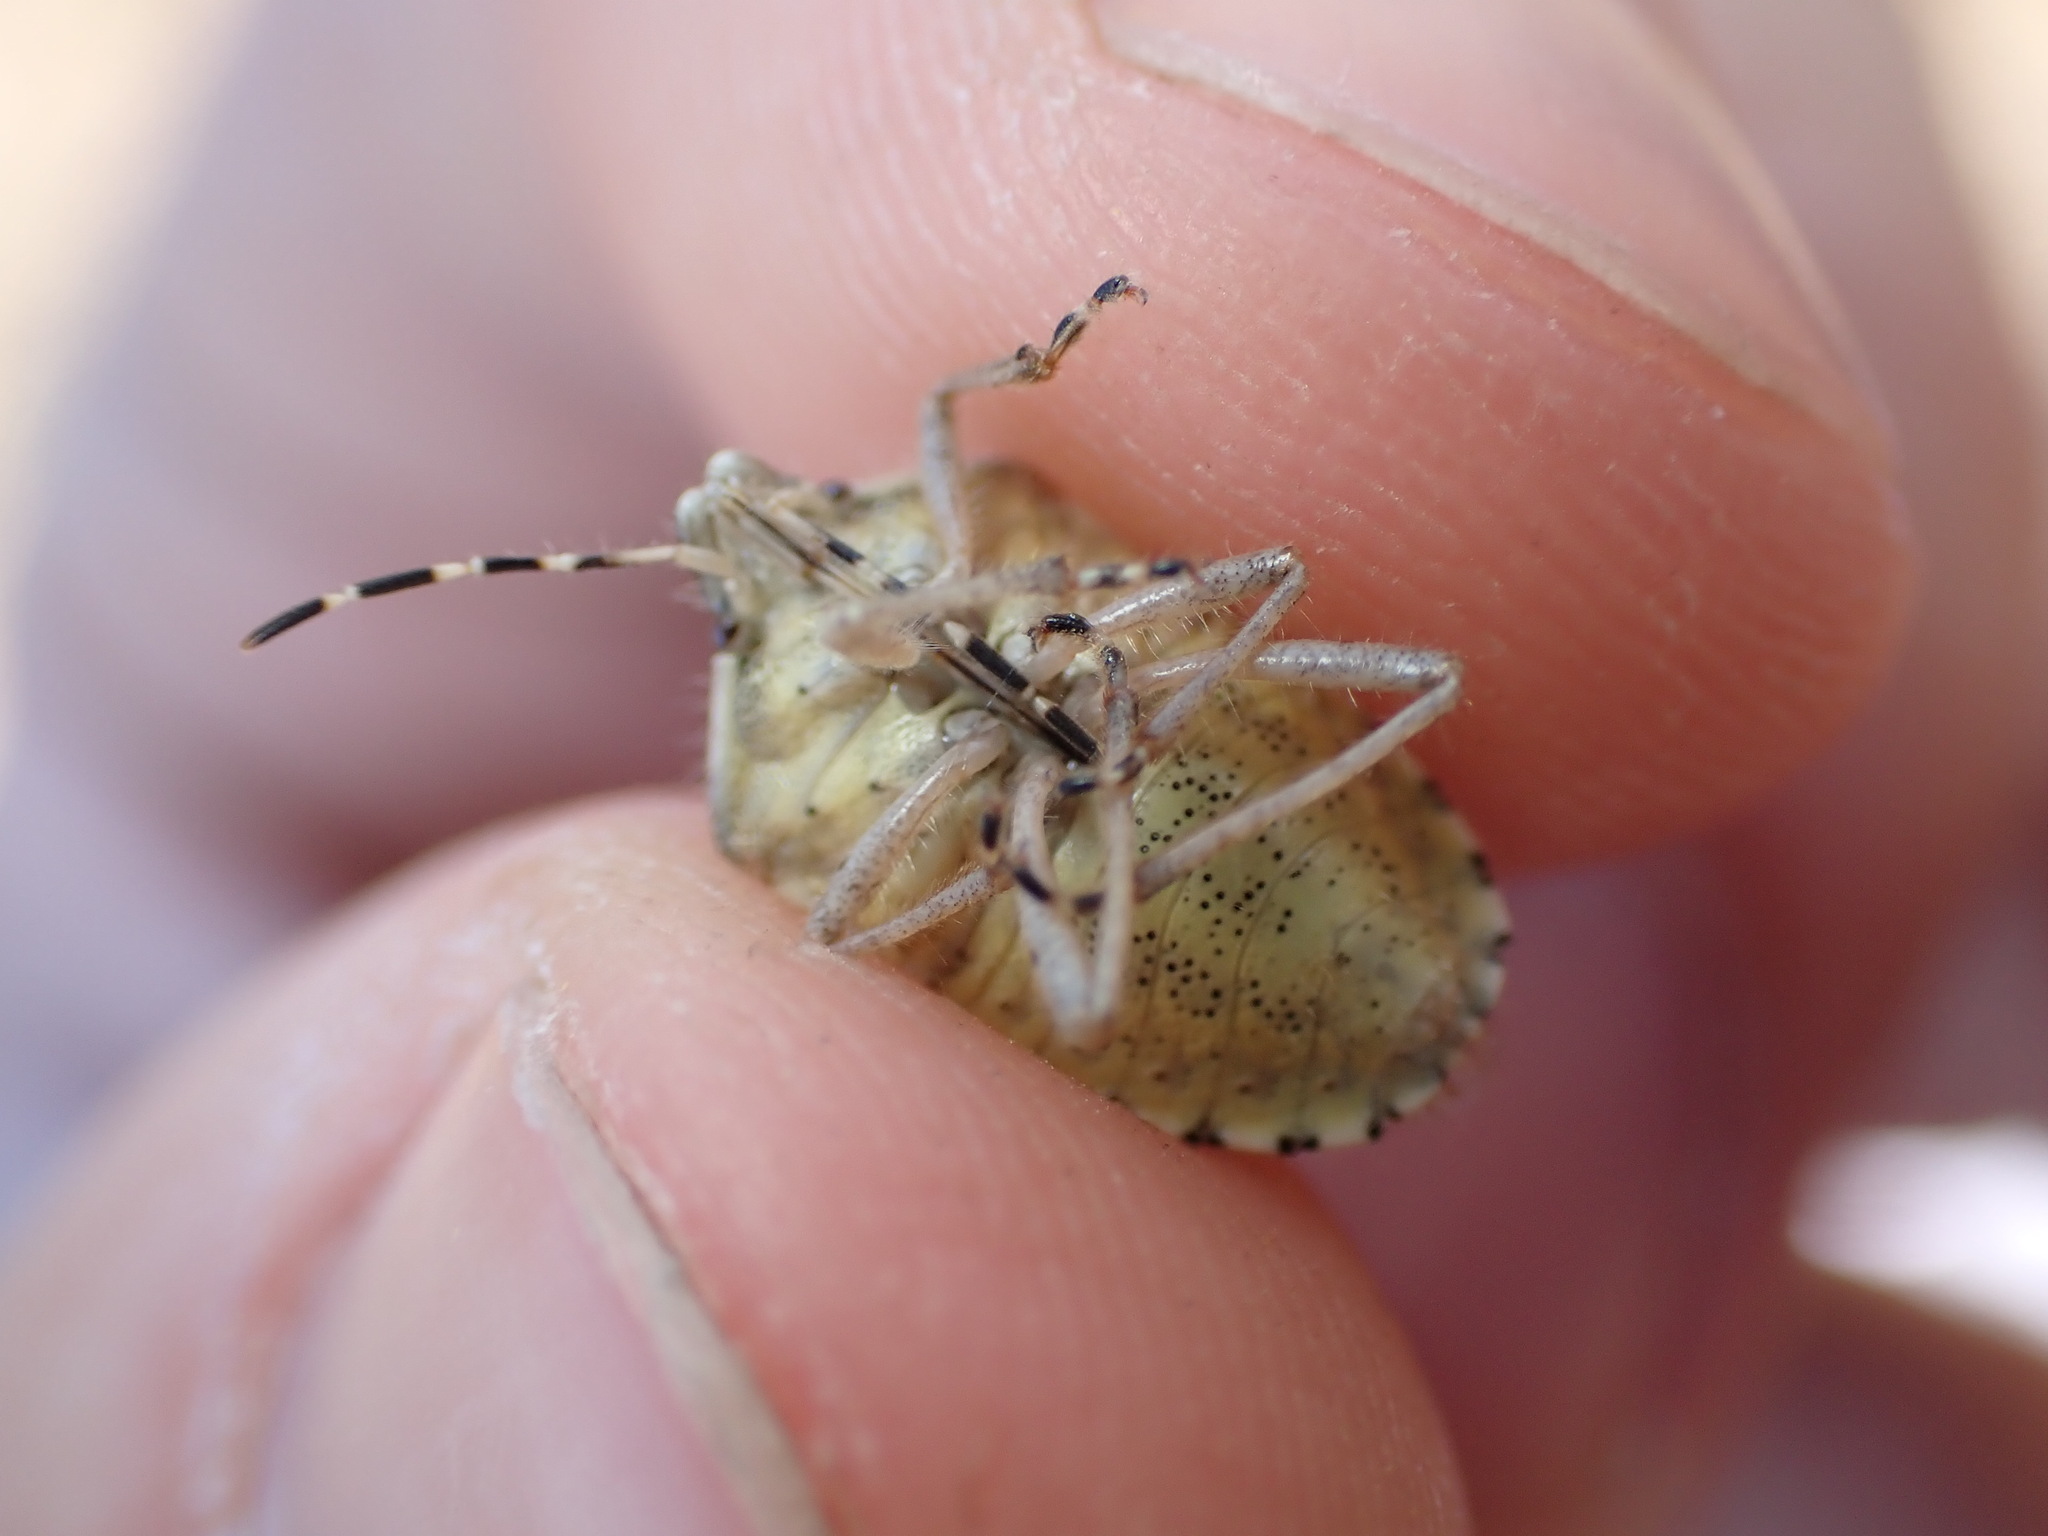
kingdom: Animalia
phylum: Arthropoda
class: Insecta
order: Hemiptera
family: Pentatomidae
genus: Dolycoris
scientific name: Dolycoris baccarum
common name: Sloe bug
